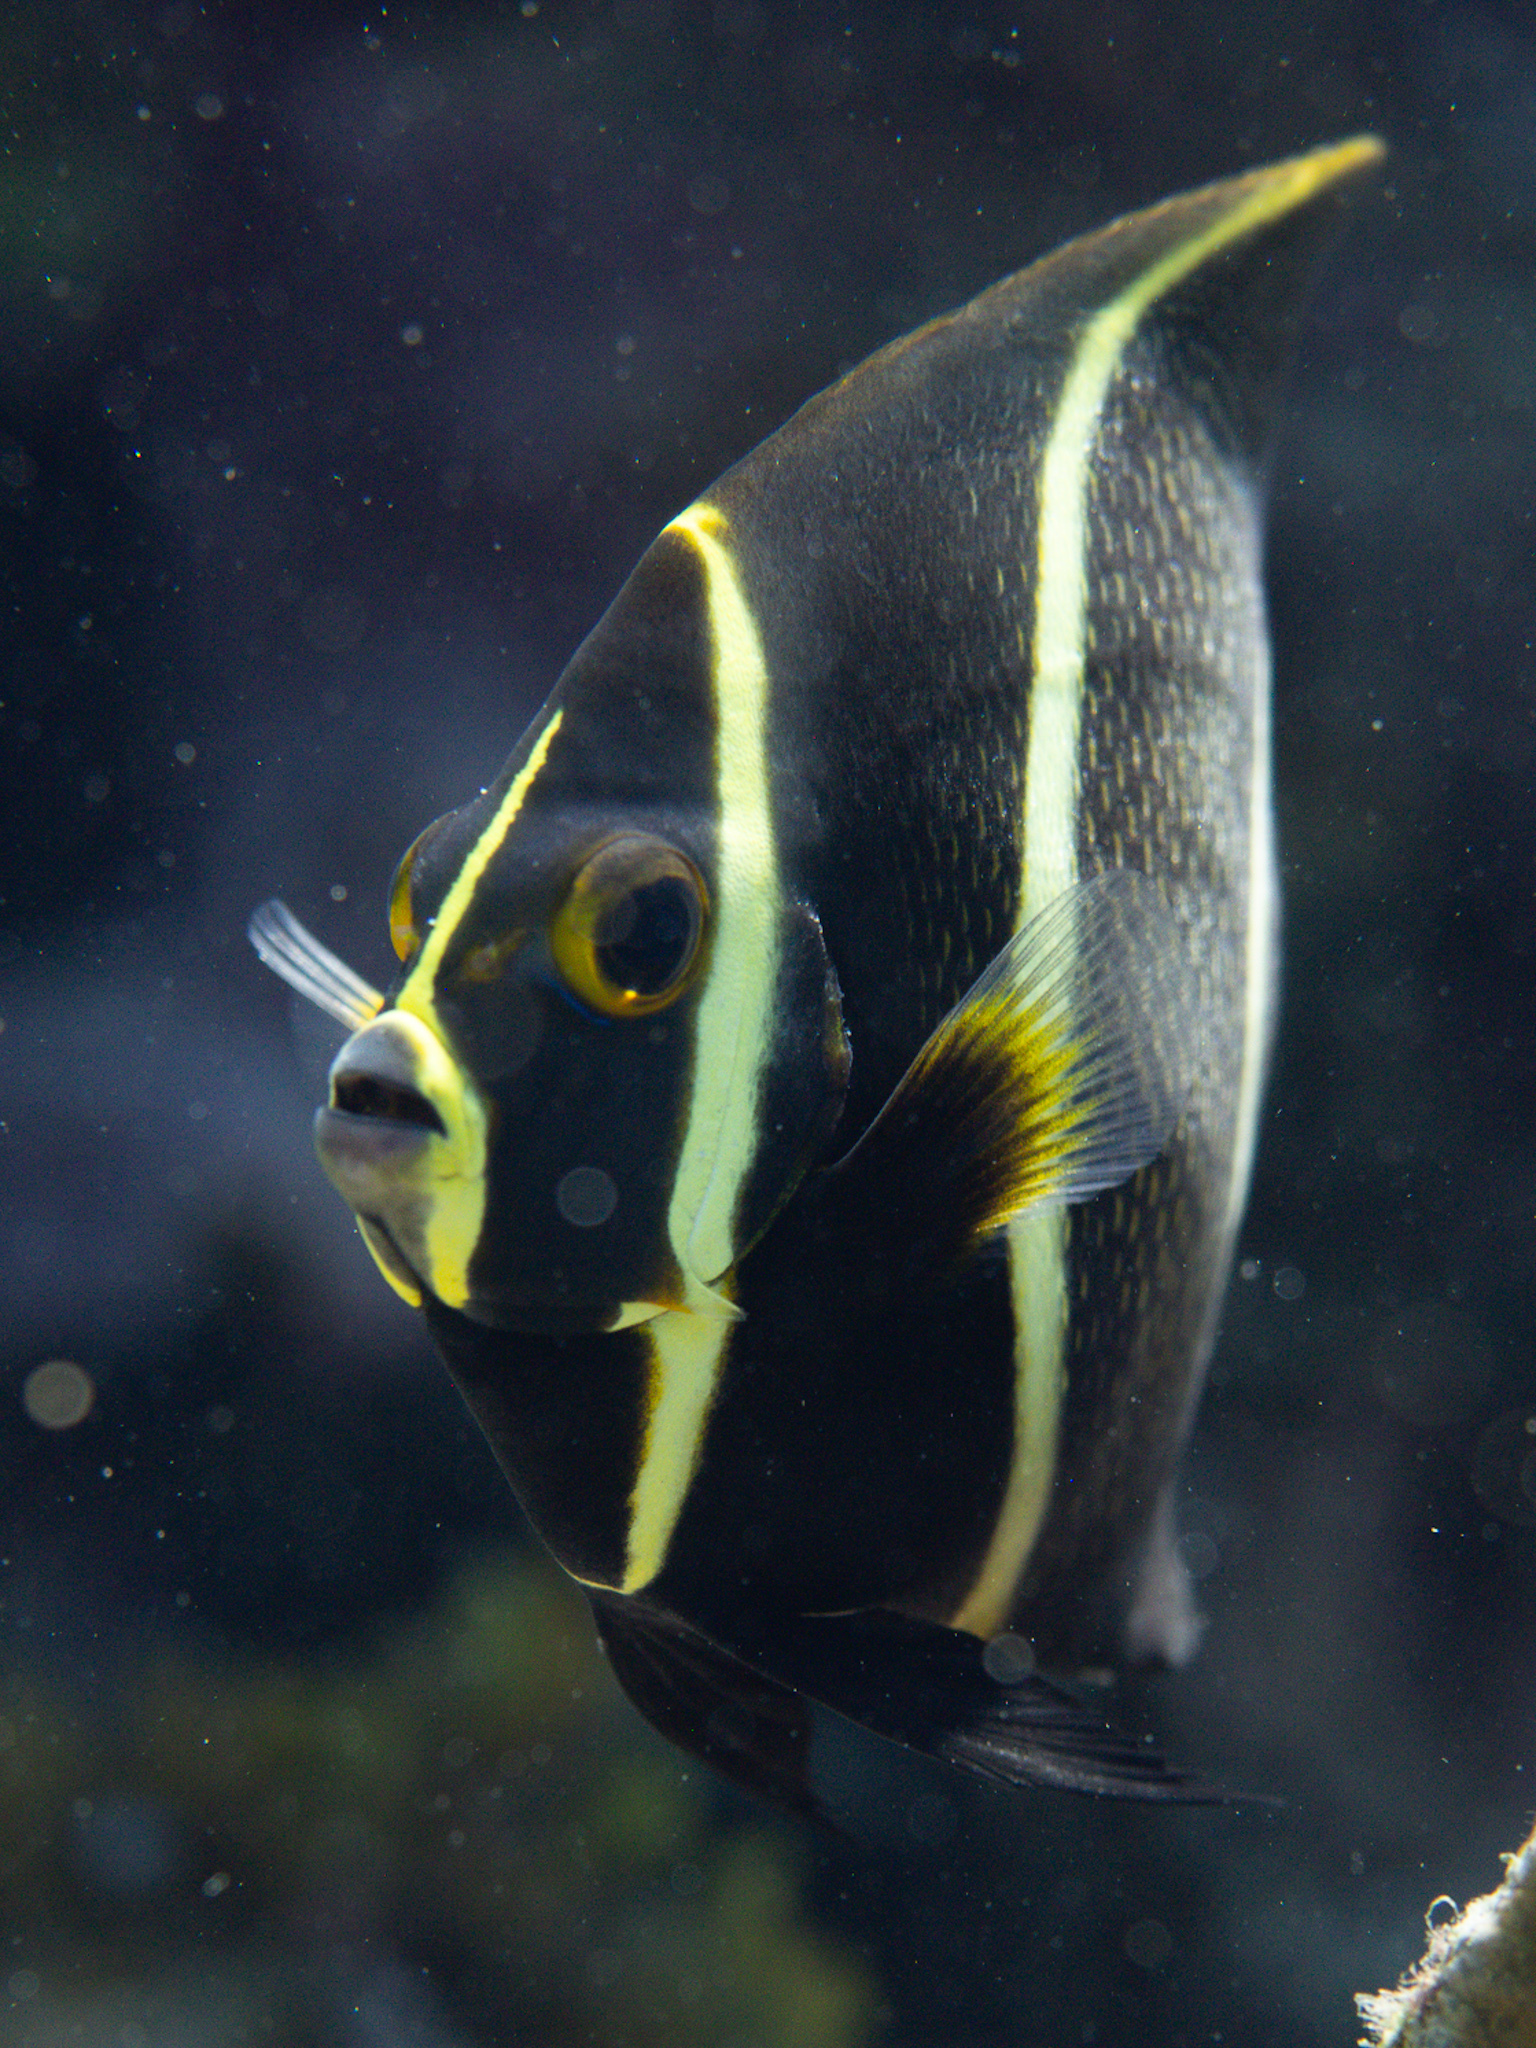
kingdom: Animalia
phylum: Chordata
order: Perciformes
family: Pomacanthidae
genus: Pomacanthus
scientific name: Pomacanthus paru
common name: French angelfish
